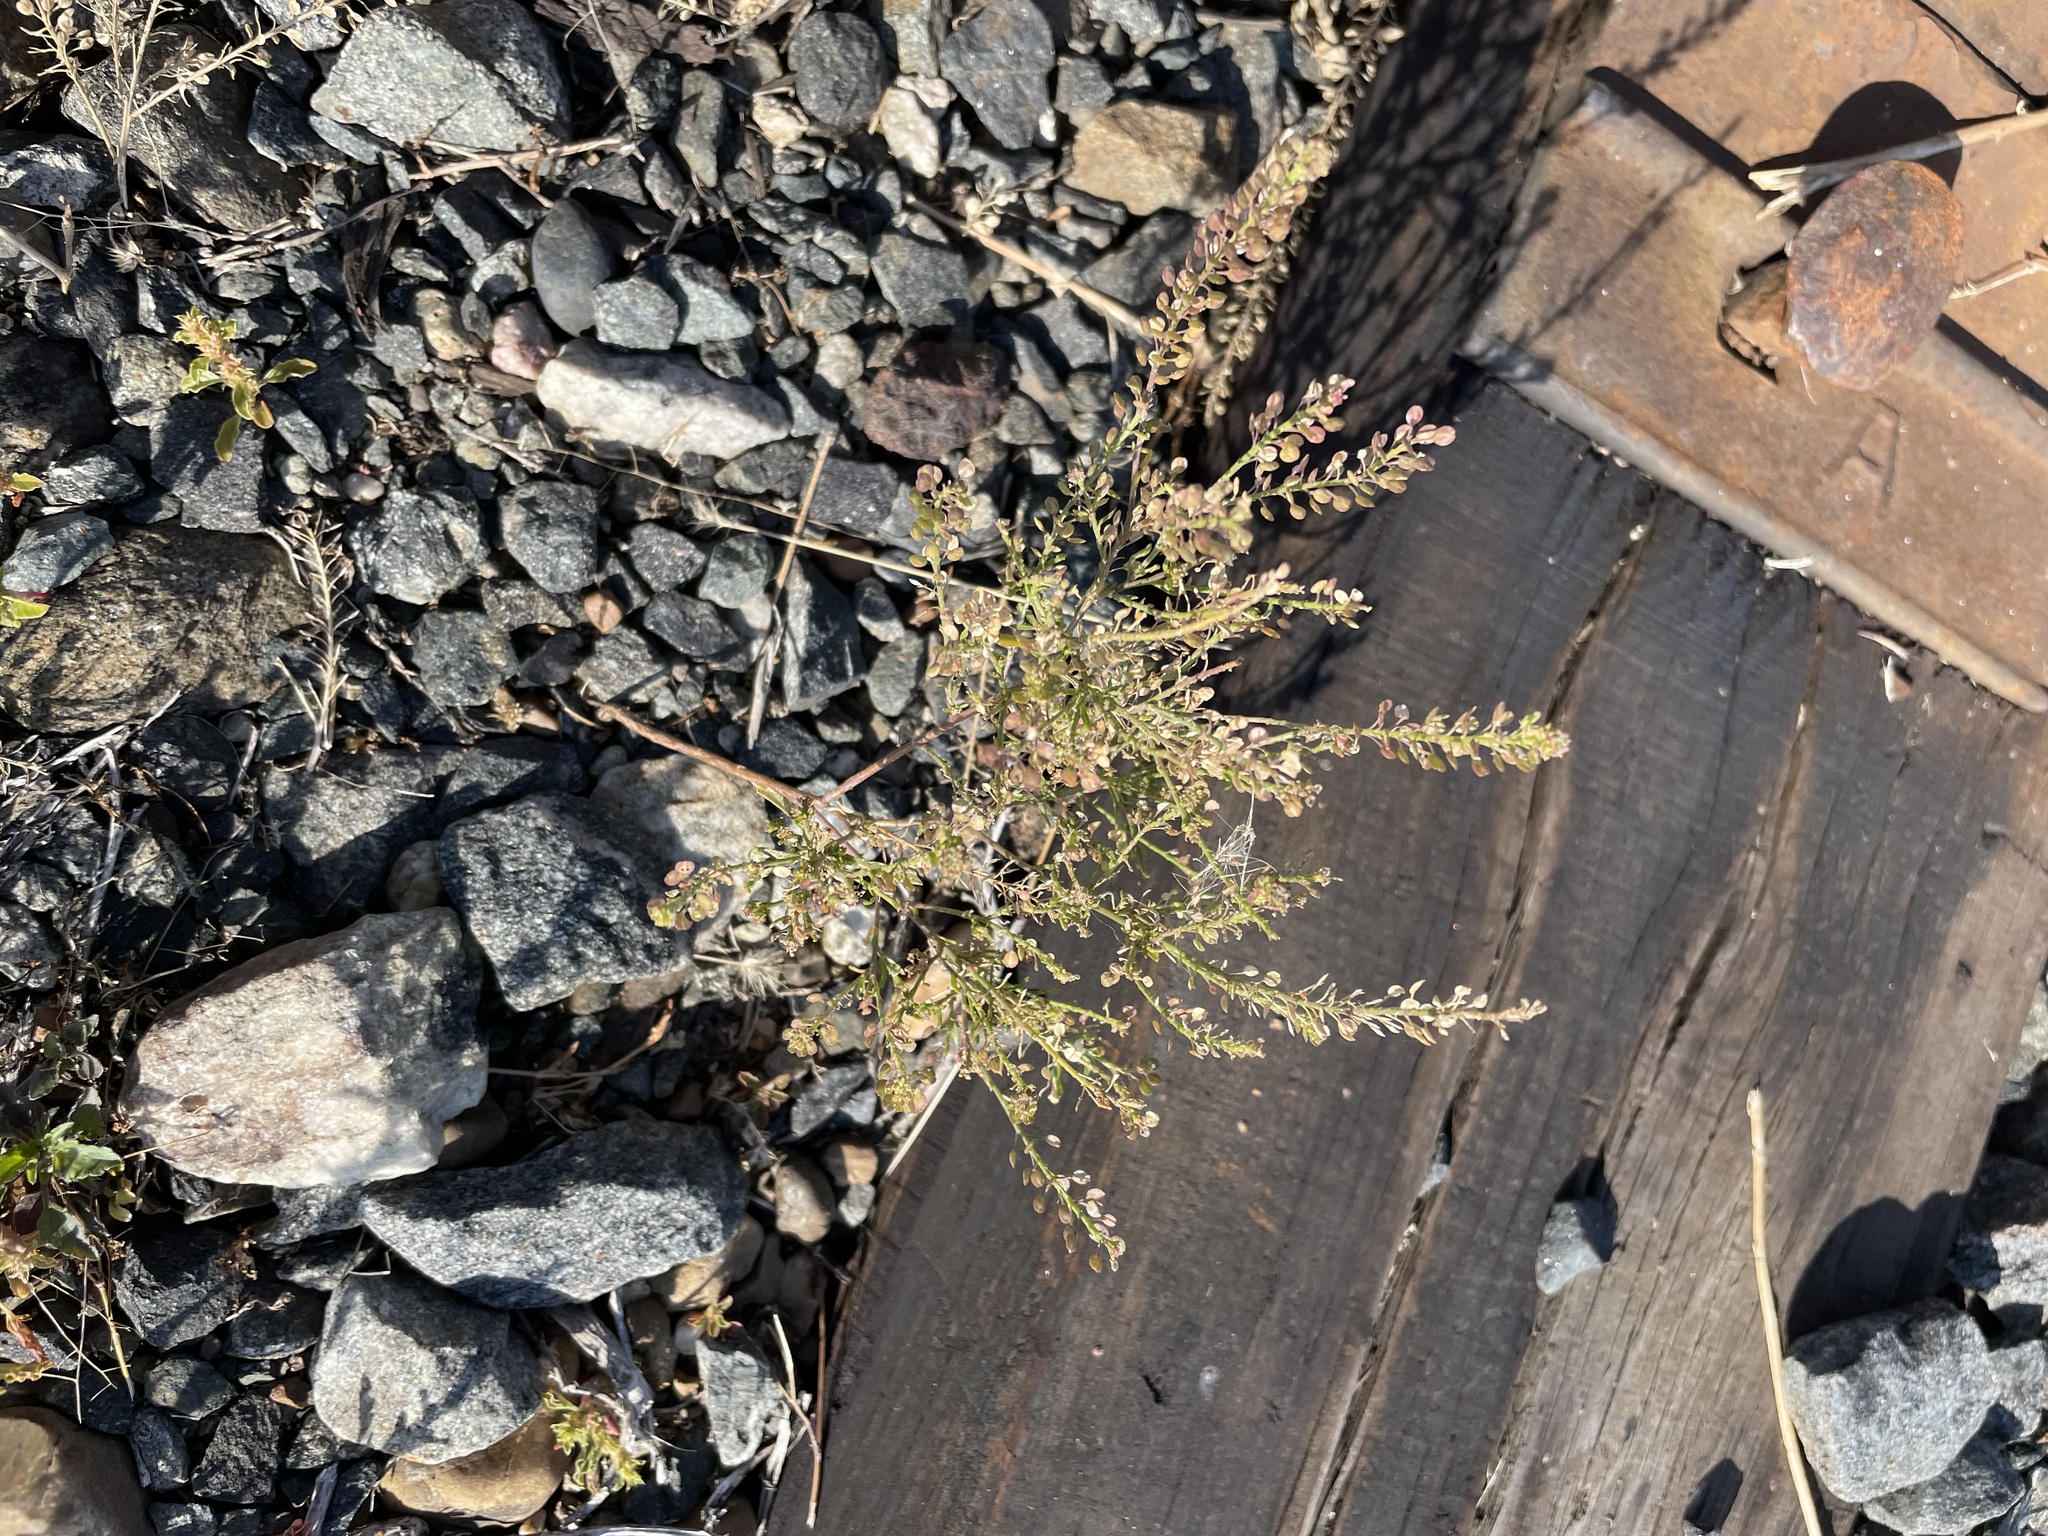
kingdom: Plantae
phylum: Tracheophyta
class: Magnoliopsida
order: Brassicales
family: Brassicaceae
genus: Lepidium
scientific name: Lepidium densiflorum
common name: Miner's pepperwort
